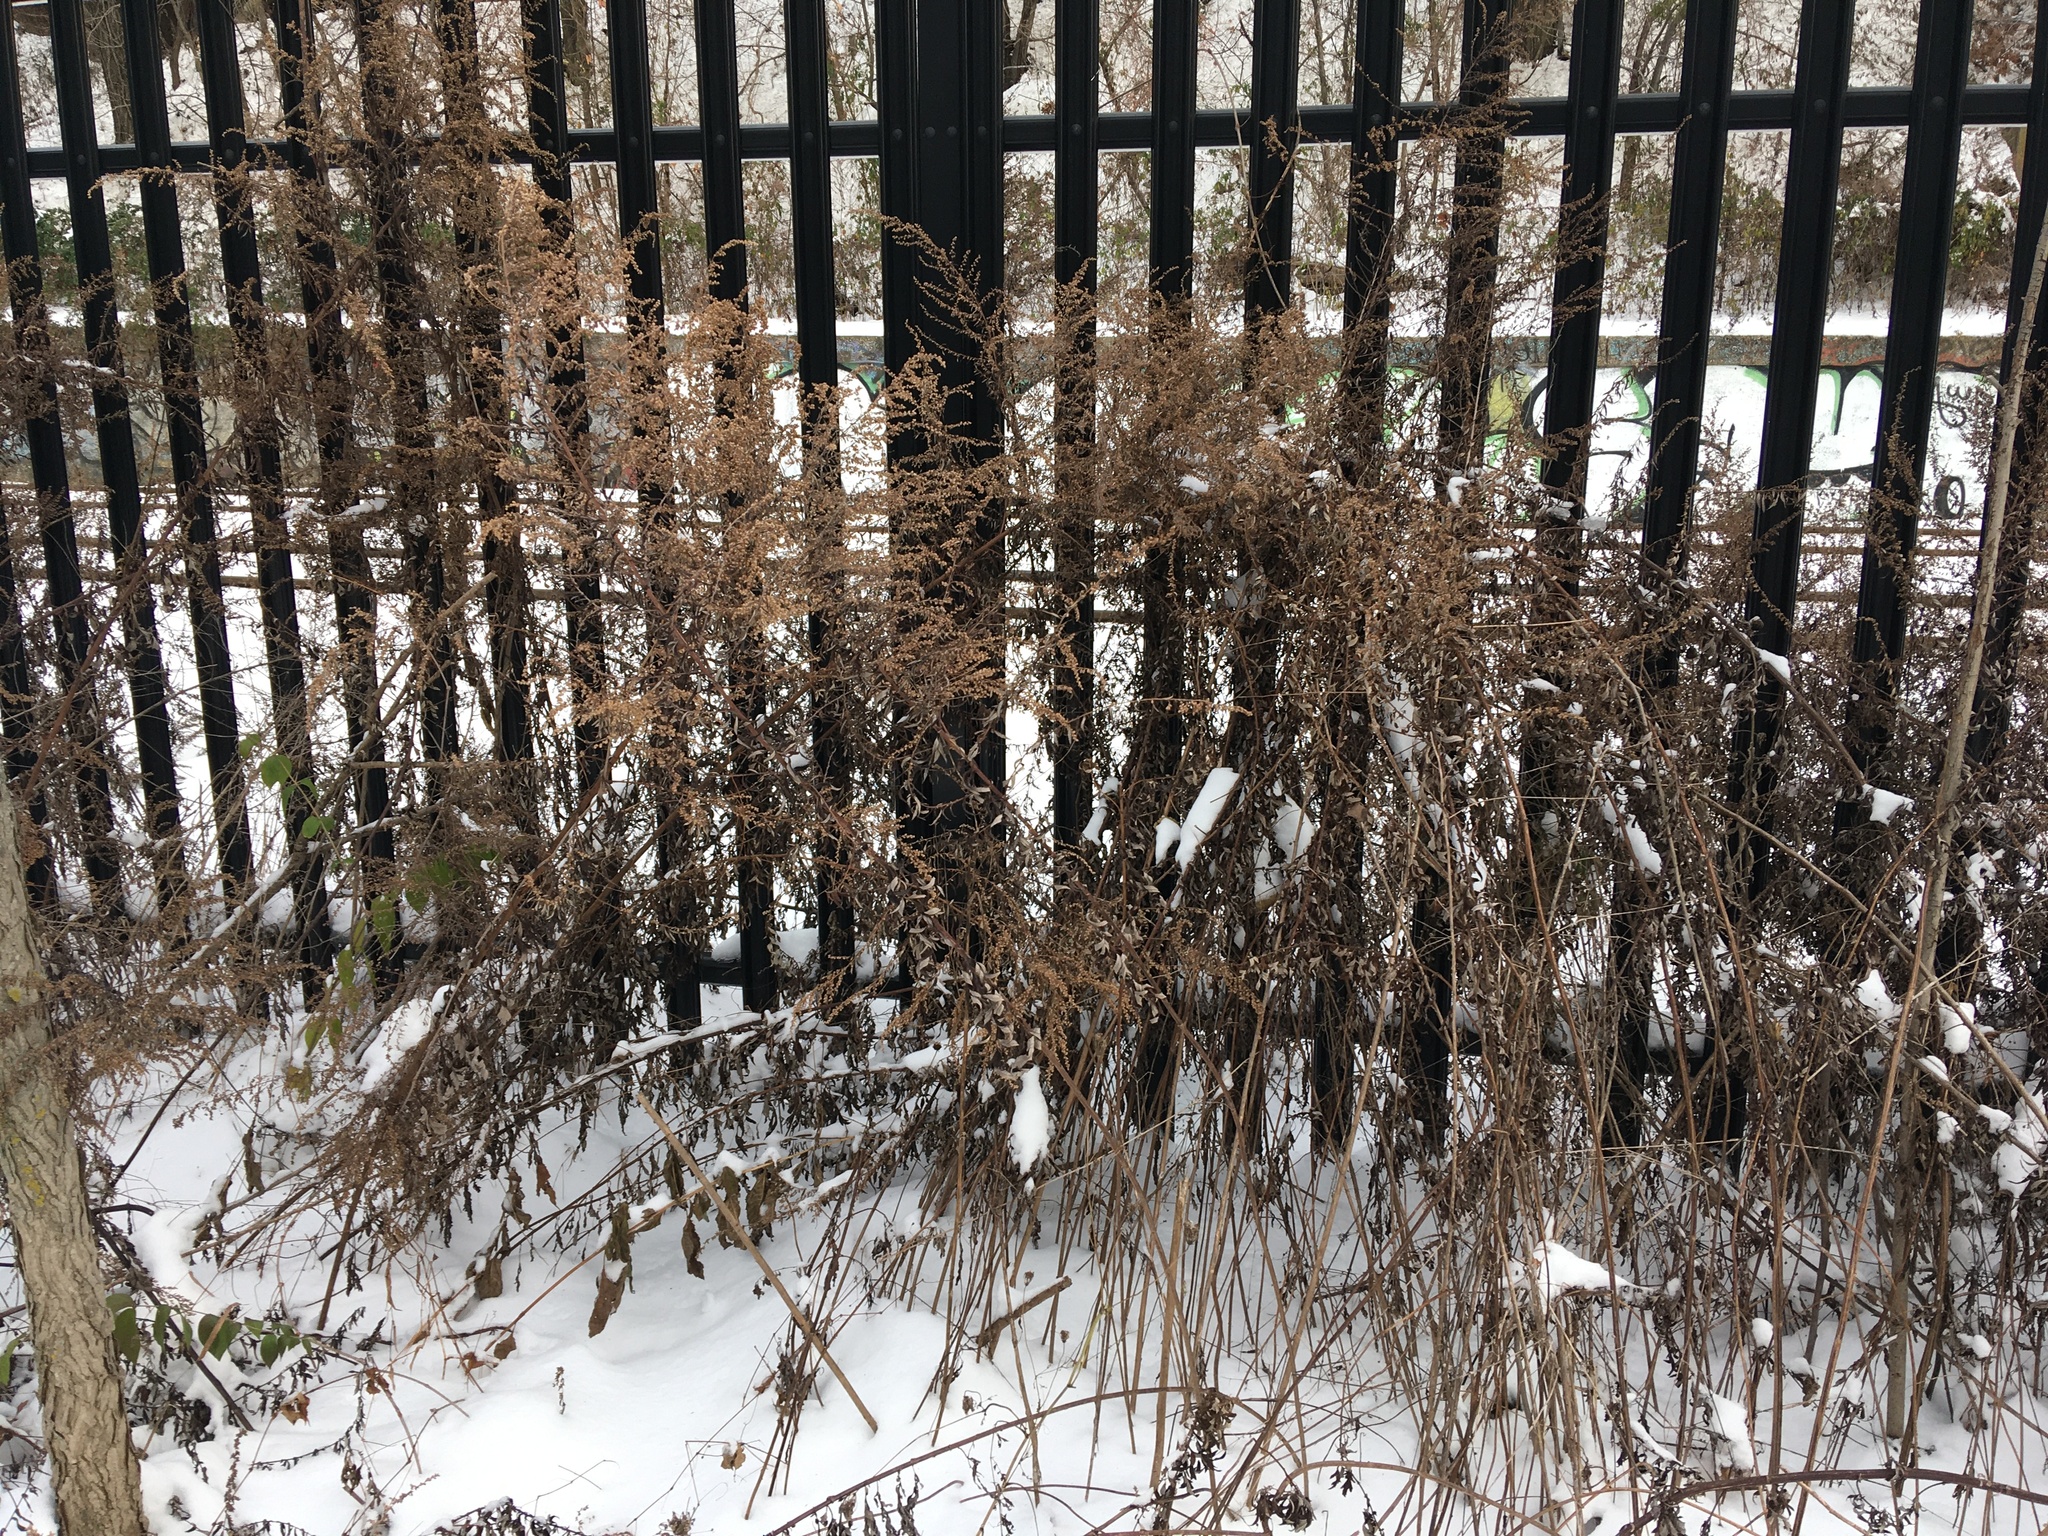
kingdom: Plantae
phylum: Tracheophyta
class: Magnoliopsida
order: Asterales
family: Asteraceae
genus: Artemisia
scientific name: Artemisia vulgaris
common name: Mugwort
